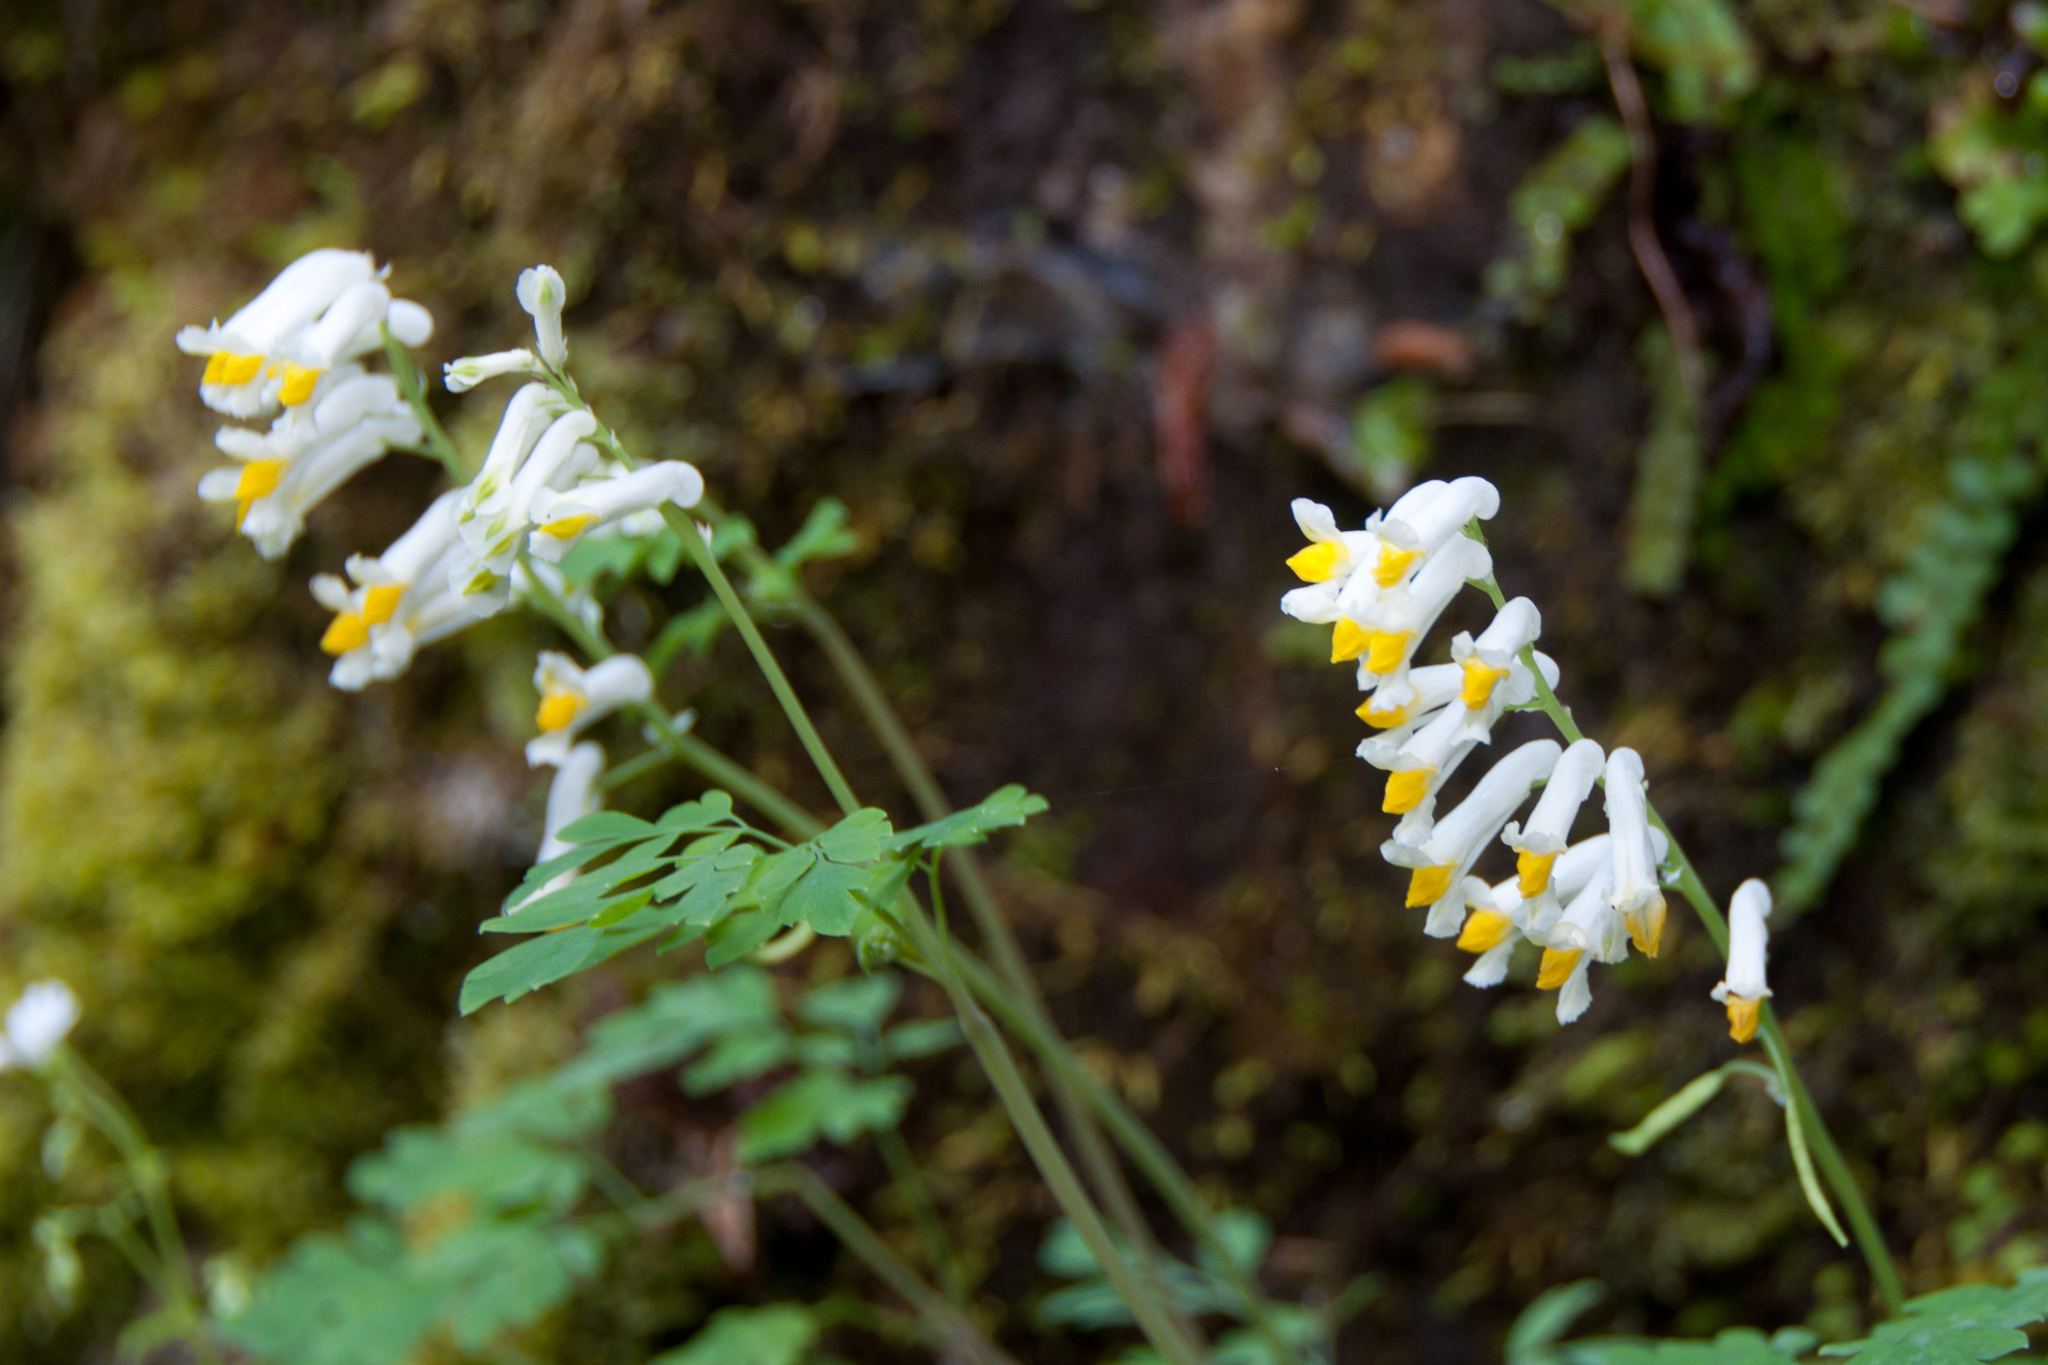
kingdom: Plantae
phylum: Tracheophyta
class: Magnoliopsida
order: Ranunculales
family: Papaveraceae
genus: Pseudofumaria
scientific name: Pseudofumaria alba
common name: Pale corydalis
